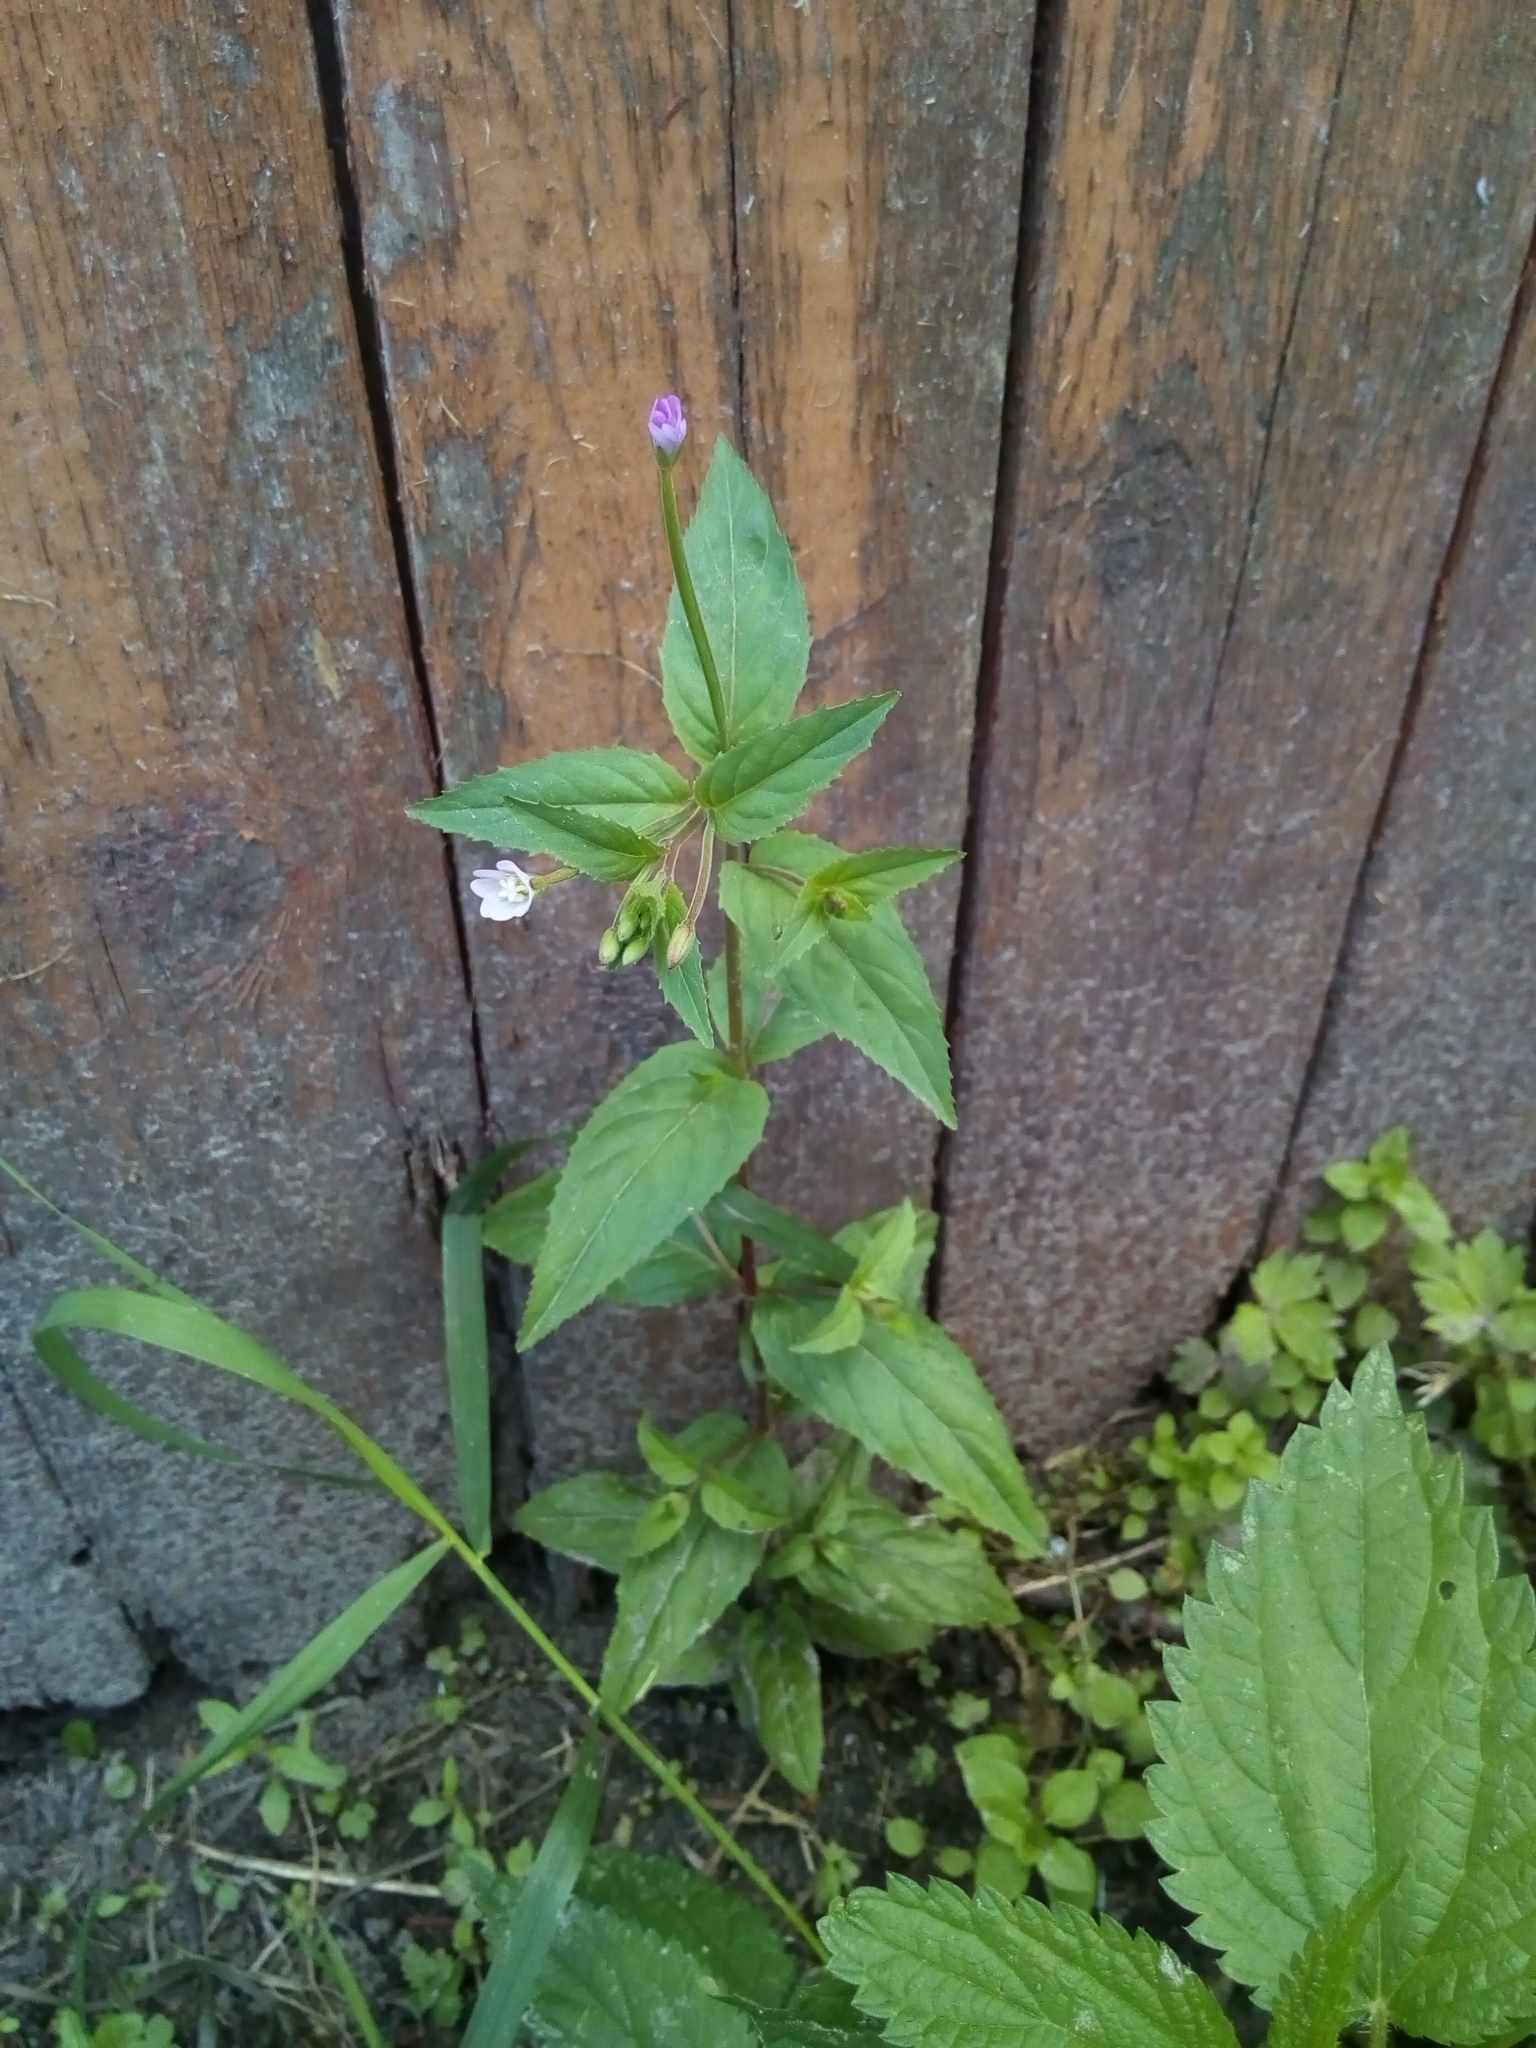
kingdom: Plantae
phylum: Tracheophyta
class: Magnoliopsida
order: Myrtales
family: Onagraceae
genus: Epilobium
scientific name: Epilobium montanum
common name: Broad-leaved willowherb
